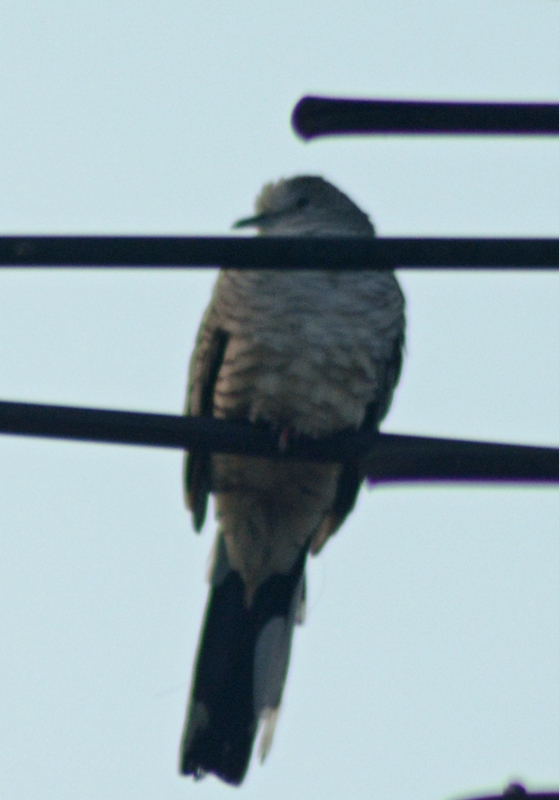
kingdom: Animalia
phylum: Chordata
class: Aves
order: Columbiformes
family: Columbidae
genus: Columbina
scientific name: Columbina inca
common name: Inca dove
